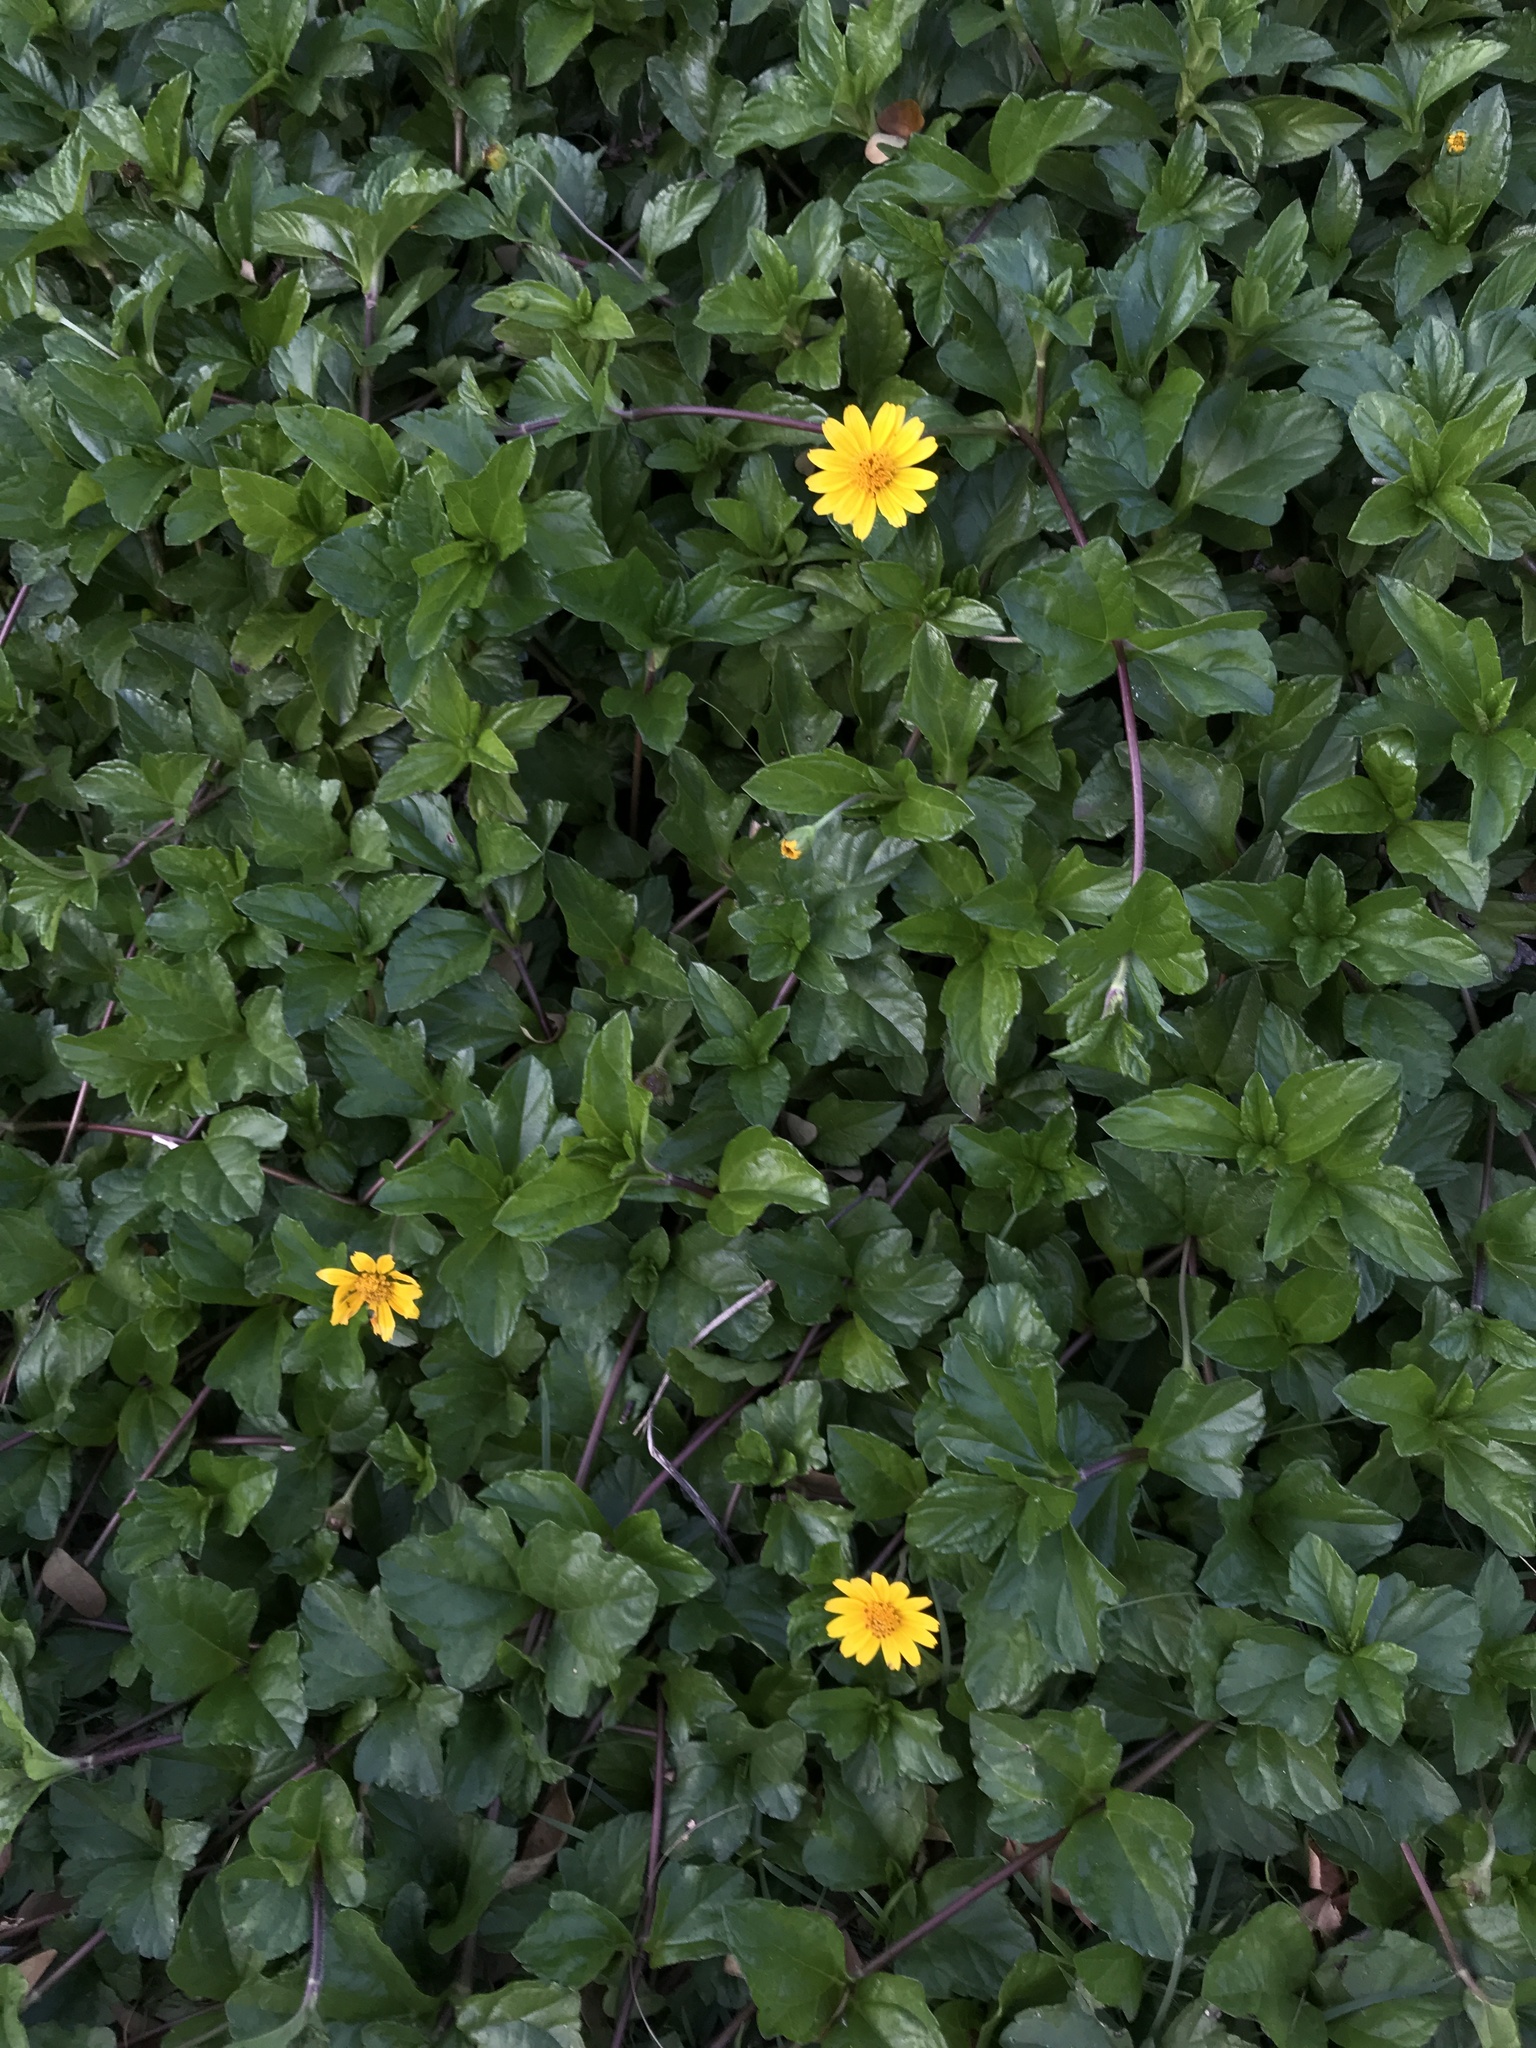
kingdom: Plantae
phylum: Tracheophyta
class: Magnoliopsida
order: Asterales
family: Asteraceae
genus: Sphagneticola
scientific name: Sphagneticola trilobata
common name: Bay biscayne creeping-oxeye
